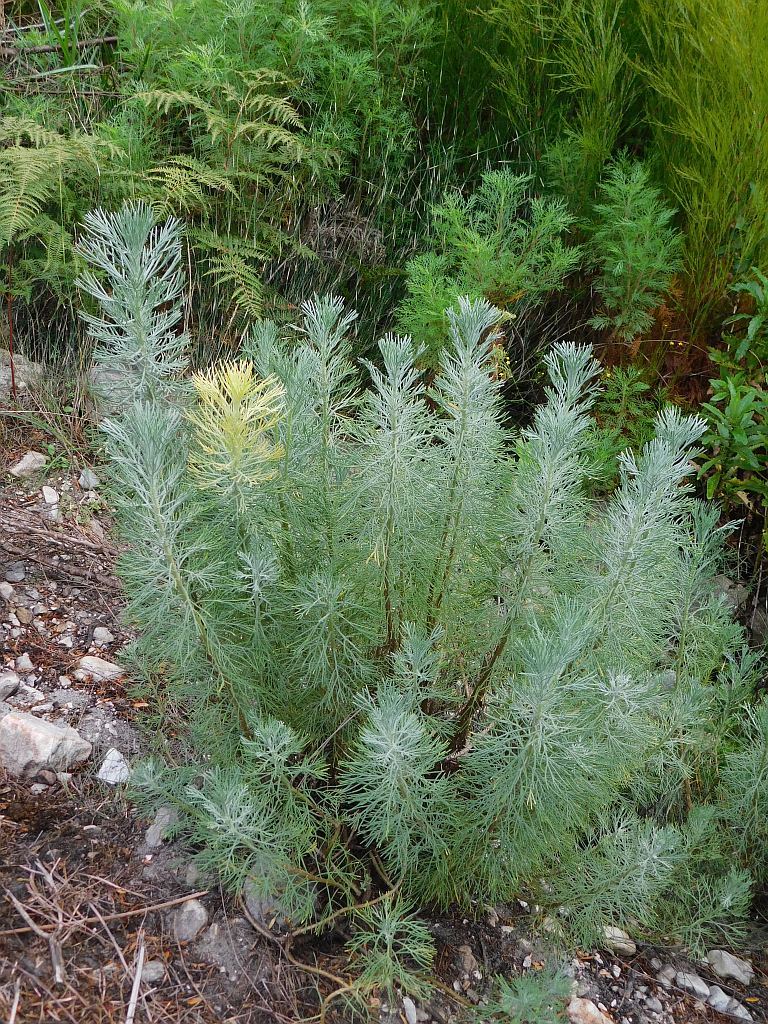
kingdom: Plantae
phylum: Tracheophyta
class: Magnoliopsida
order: Asterales
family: Asteraceae
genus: Hymenolepis
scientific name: Hymenolepis crithmifolia
